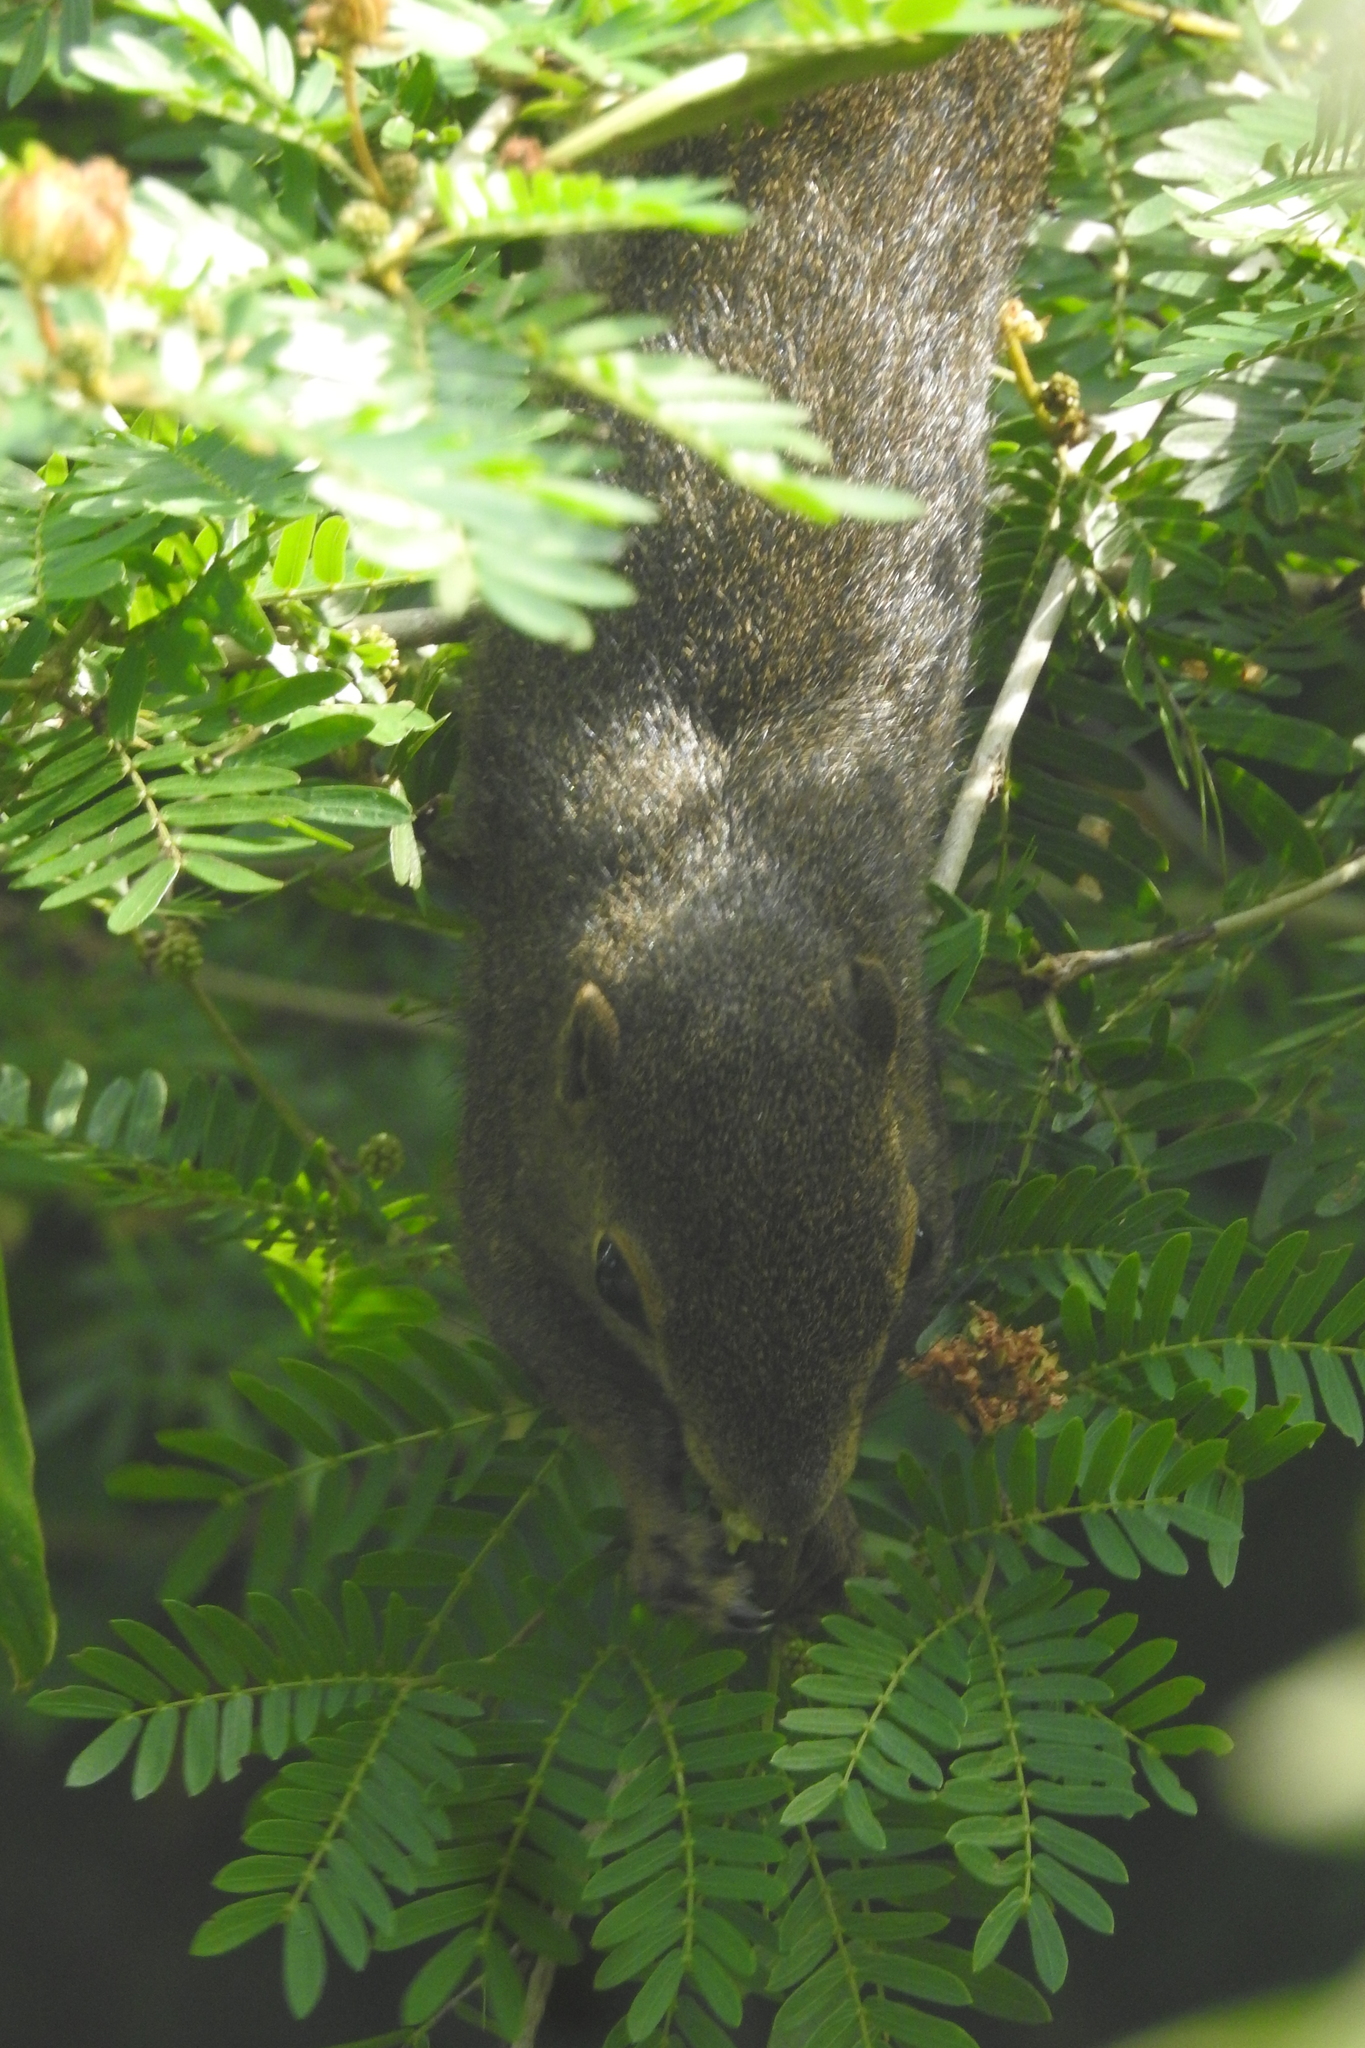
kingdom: Animalia
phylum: Chordata
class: Mammalia
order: Rodentia
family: Sciuridae
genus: Callosciurus
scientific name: Callosciurus notatus
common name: Plantain squirrel
